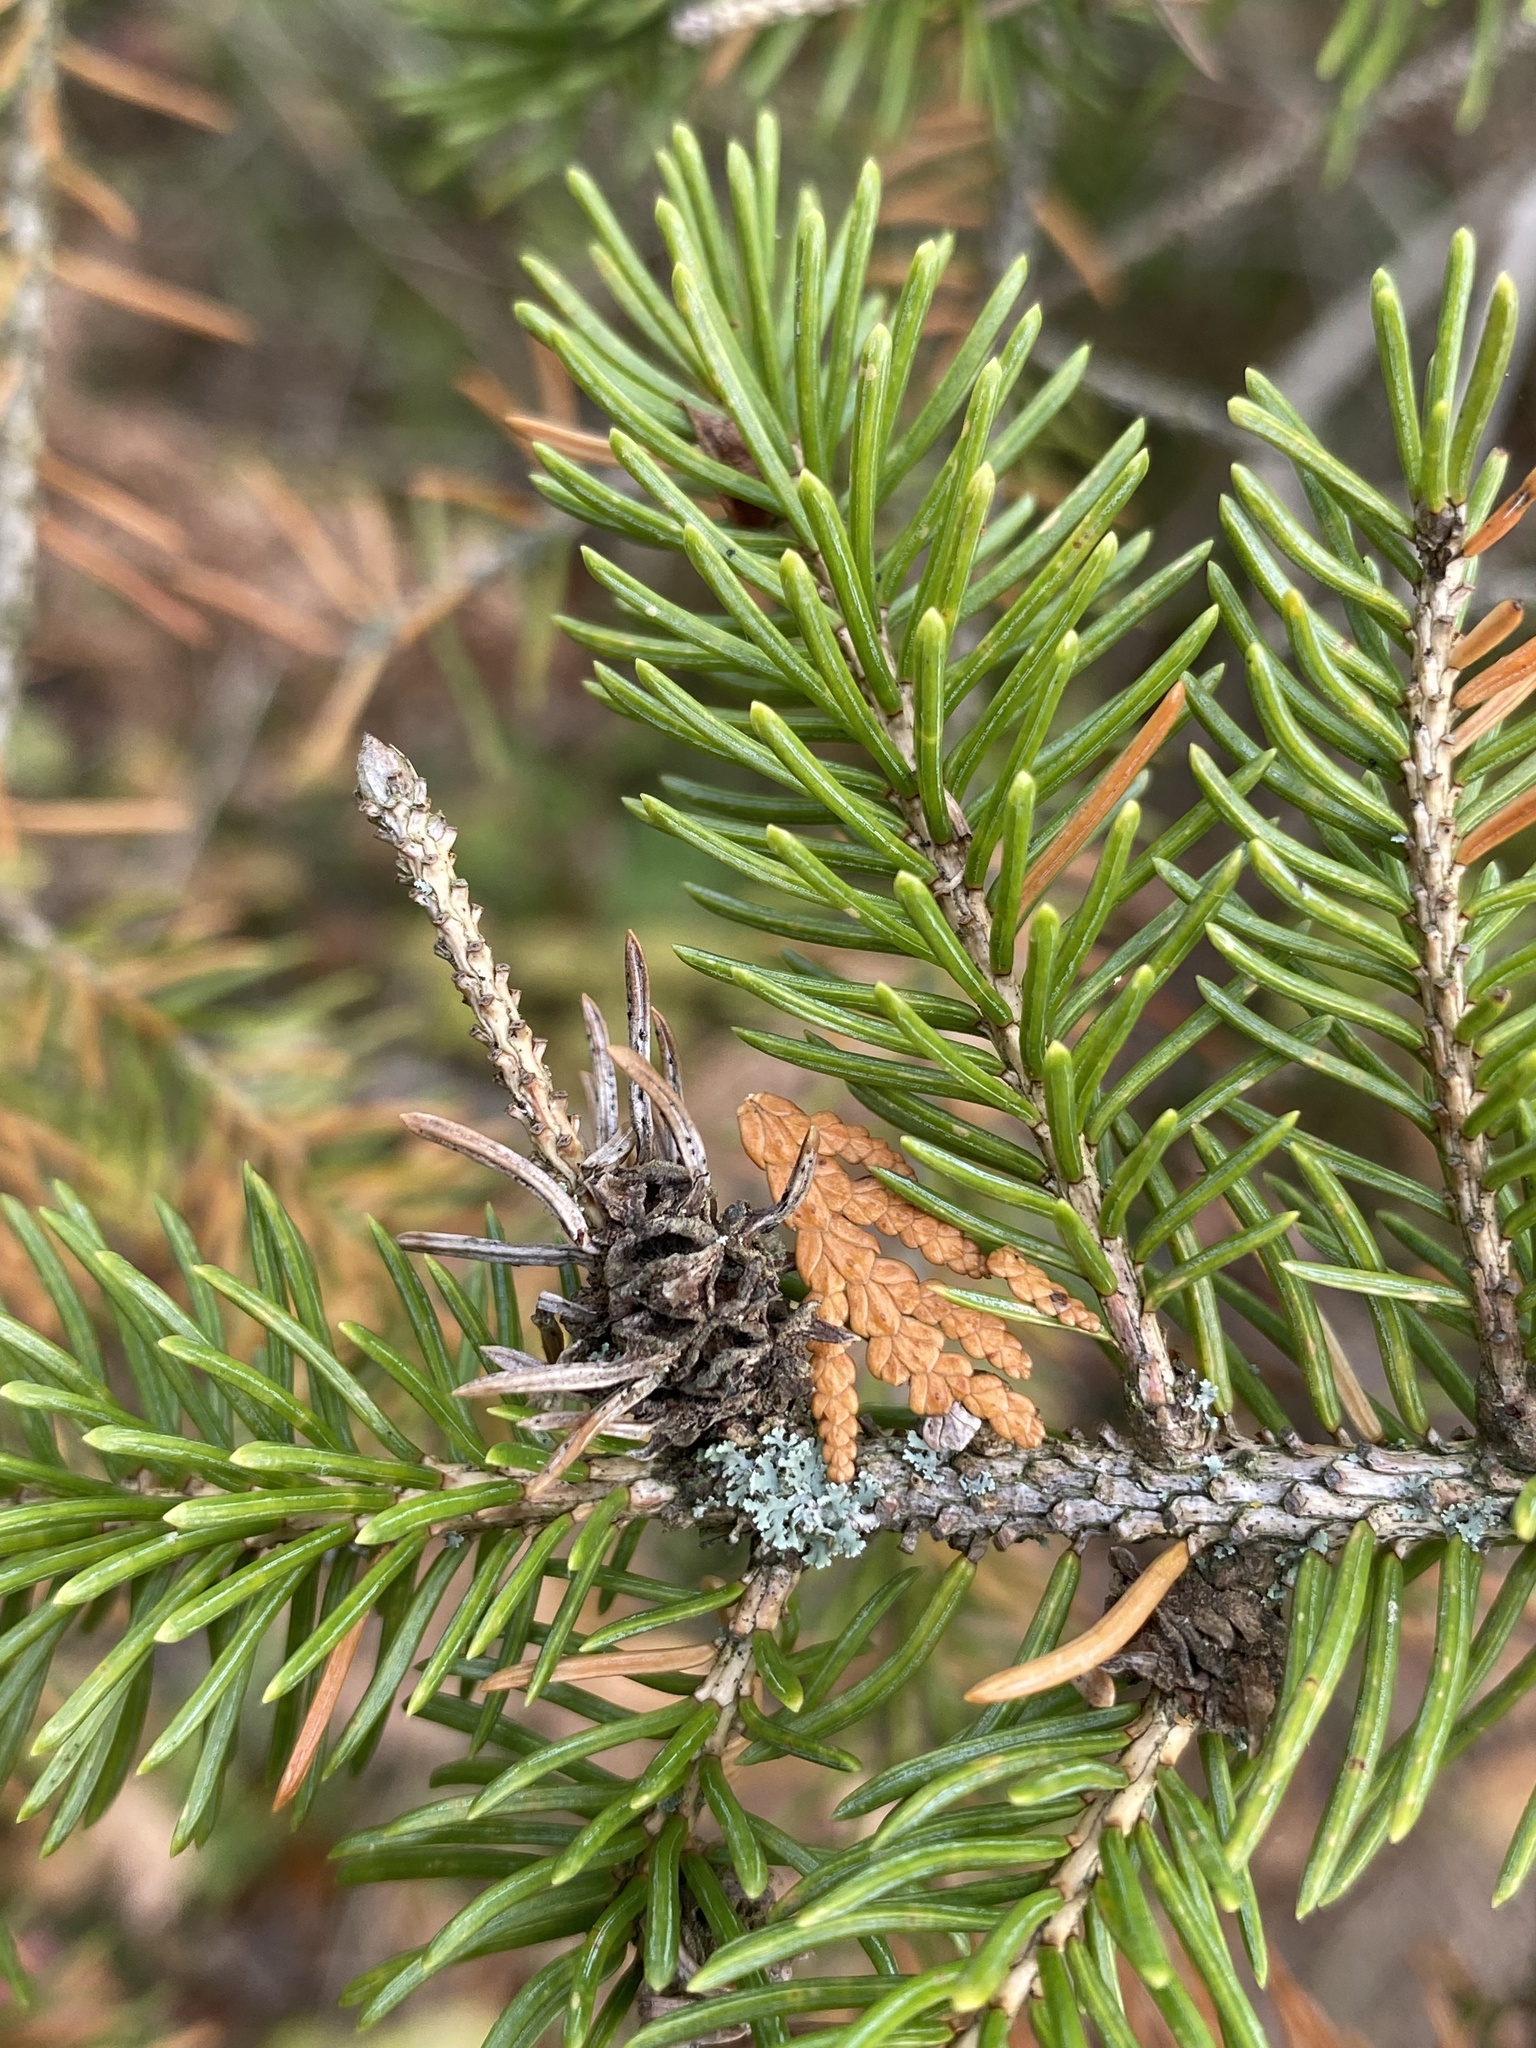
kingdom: Animalia
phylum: Arthropoda
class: Insecta
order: Hemiptera
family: Adelgidae
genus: Adelges
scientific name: Adelges abietis
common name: Eastern spruce gall adelgid
